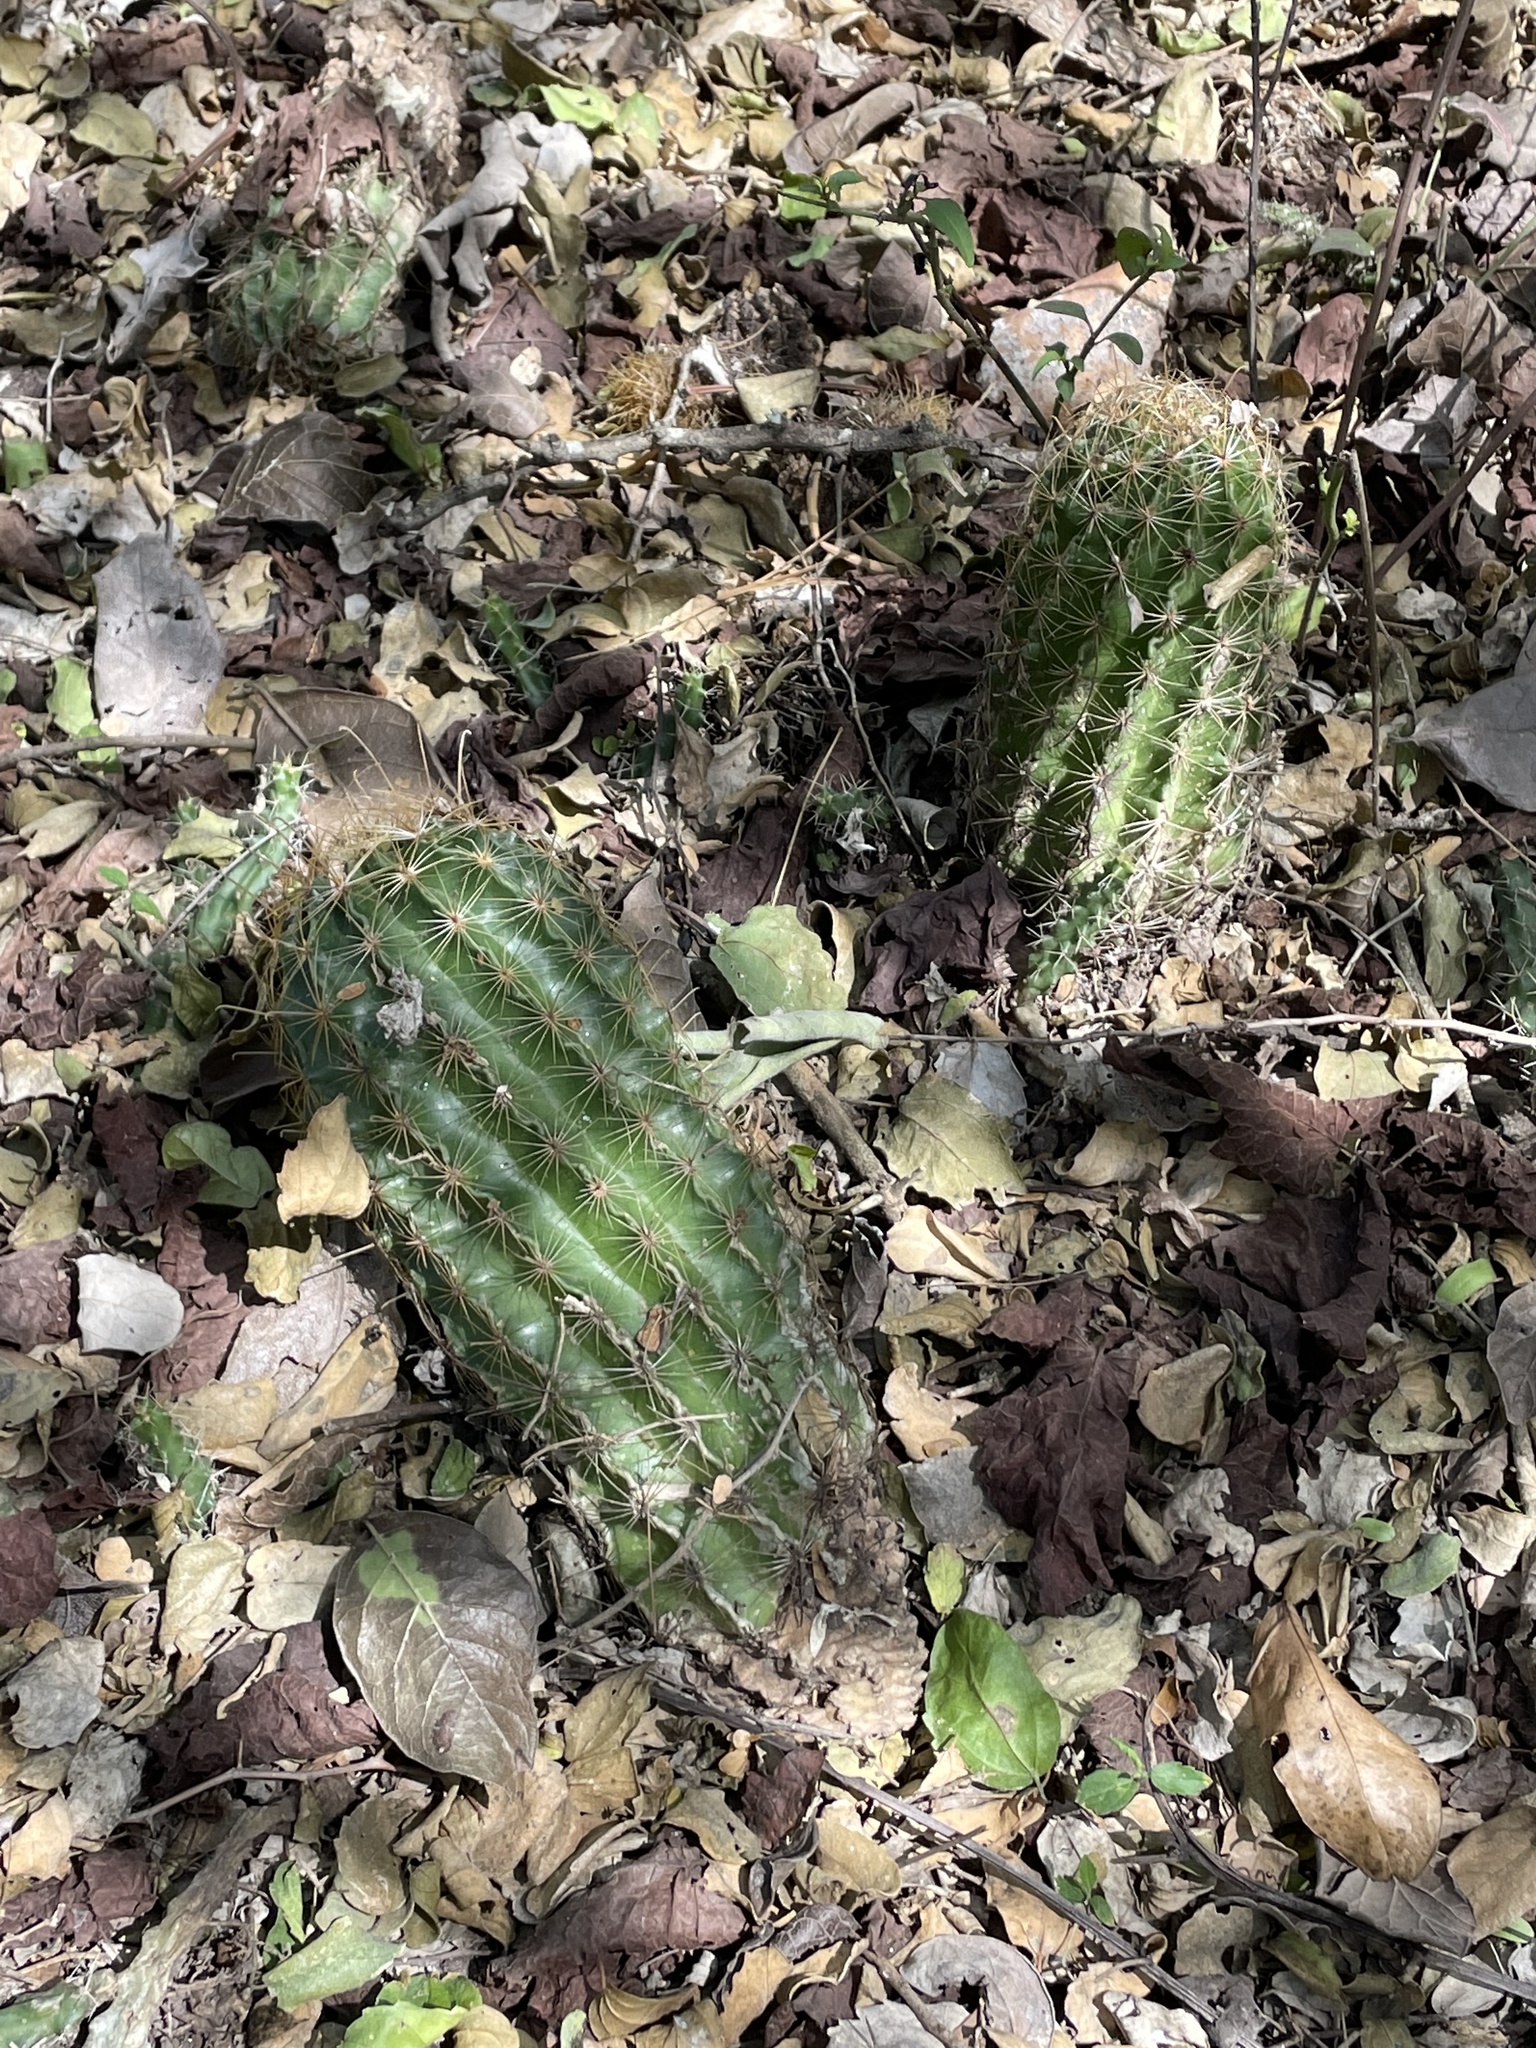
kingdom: Plantae
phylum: Tracheophyta
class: Magnoliopsida
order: Caryophyllales
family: Cactaceae
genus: Thelocactus
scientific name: Thelocactus setispinus
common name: Miniature barrel cactus
